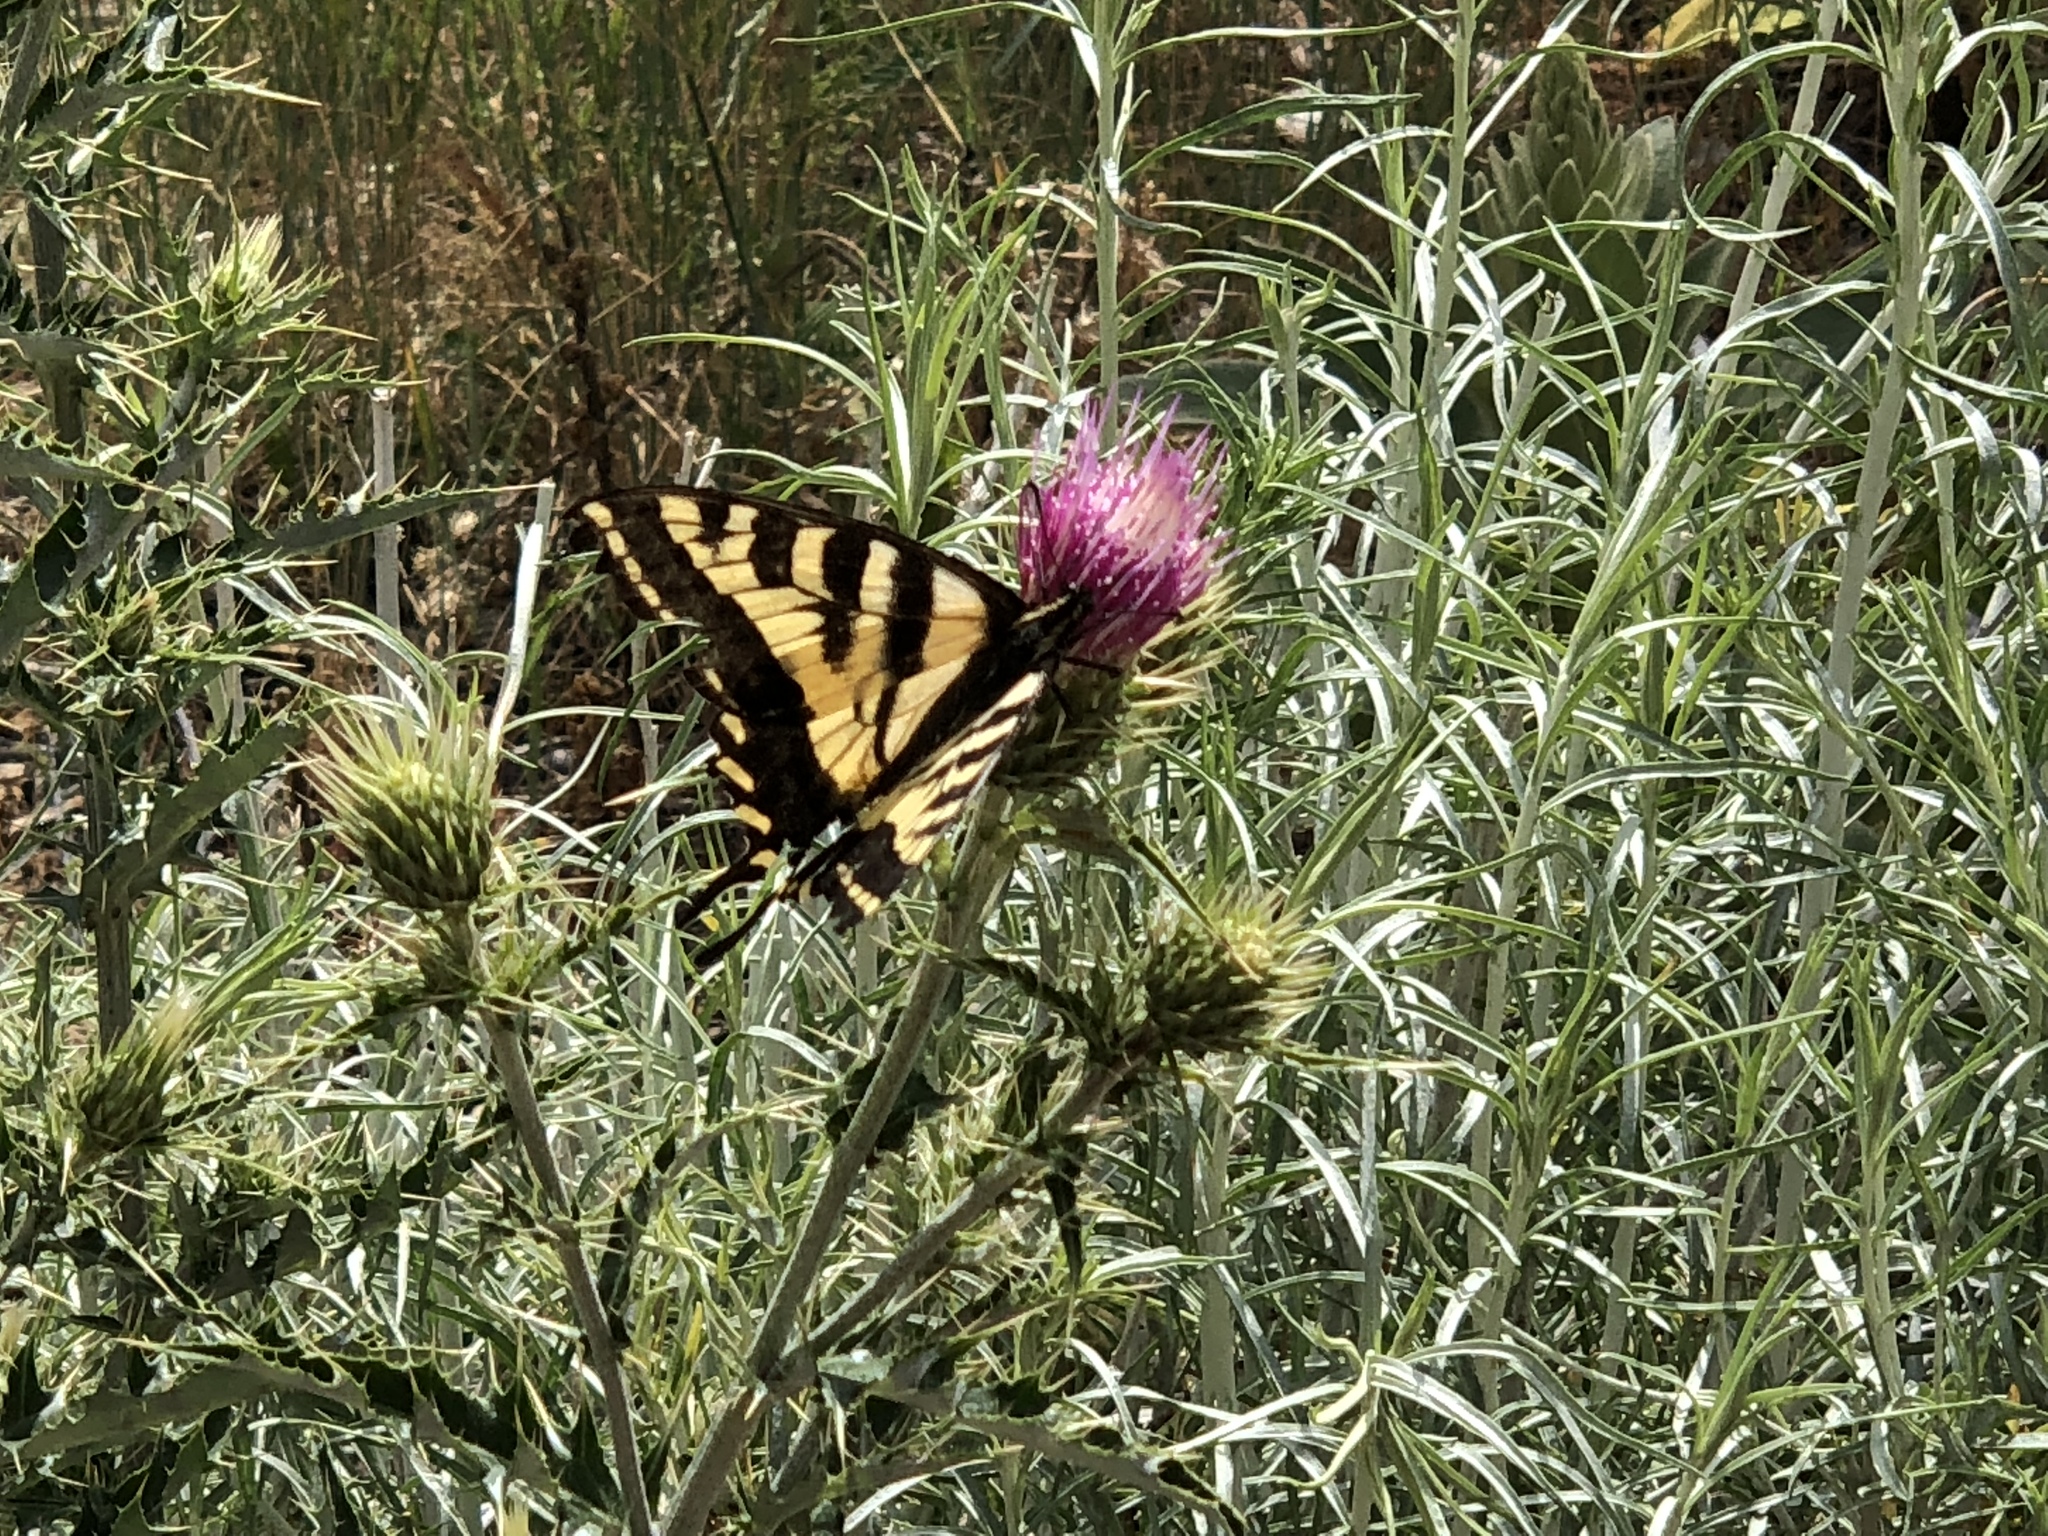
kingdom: Animalia
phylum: Arthropoda
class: Insecta
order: Lepidoptera
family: Papilionidae
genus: Papilio
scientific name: Papilio rutulus
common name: Western tiger swallowtail
